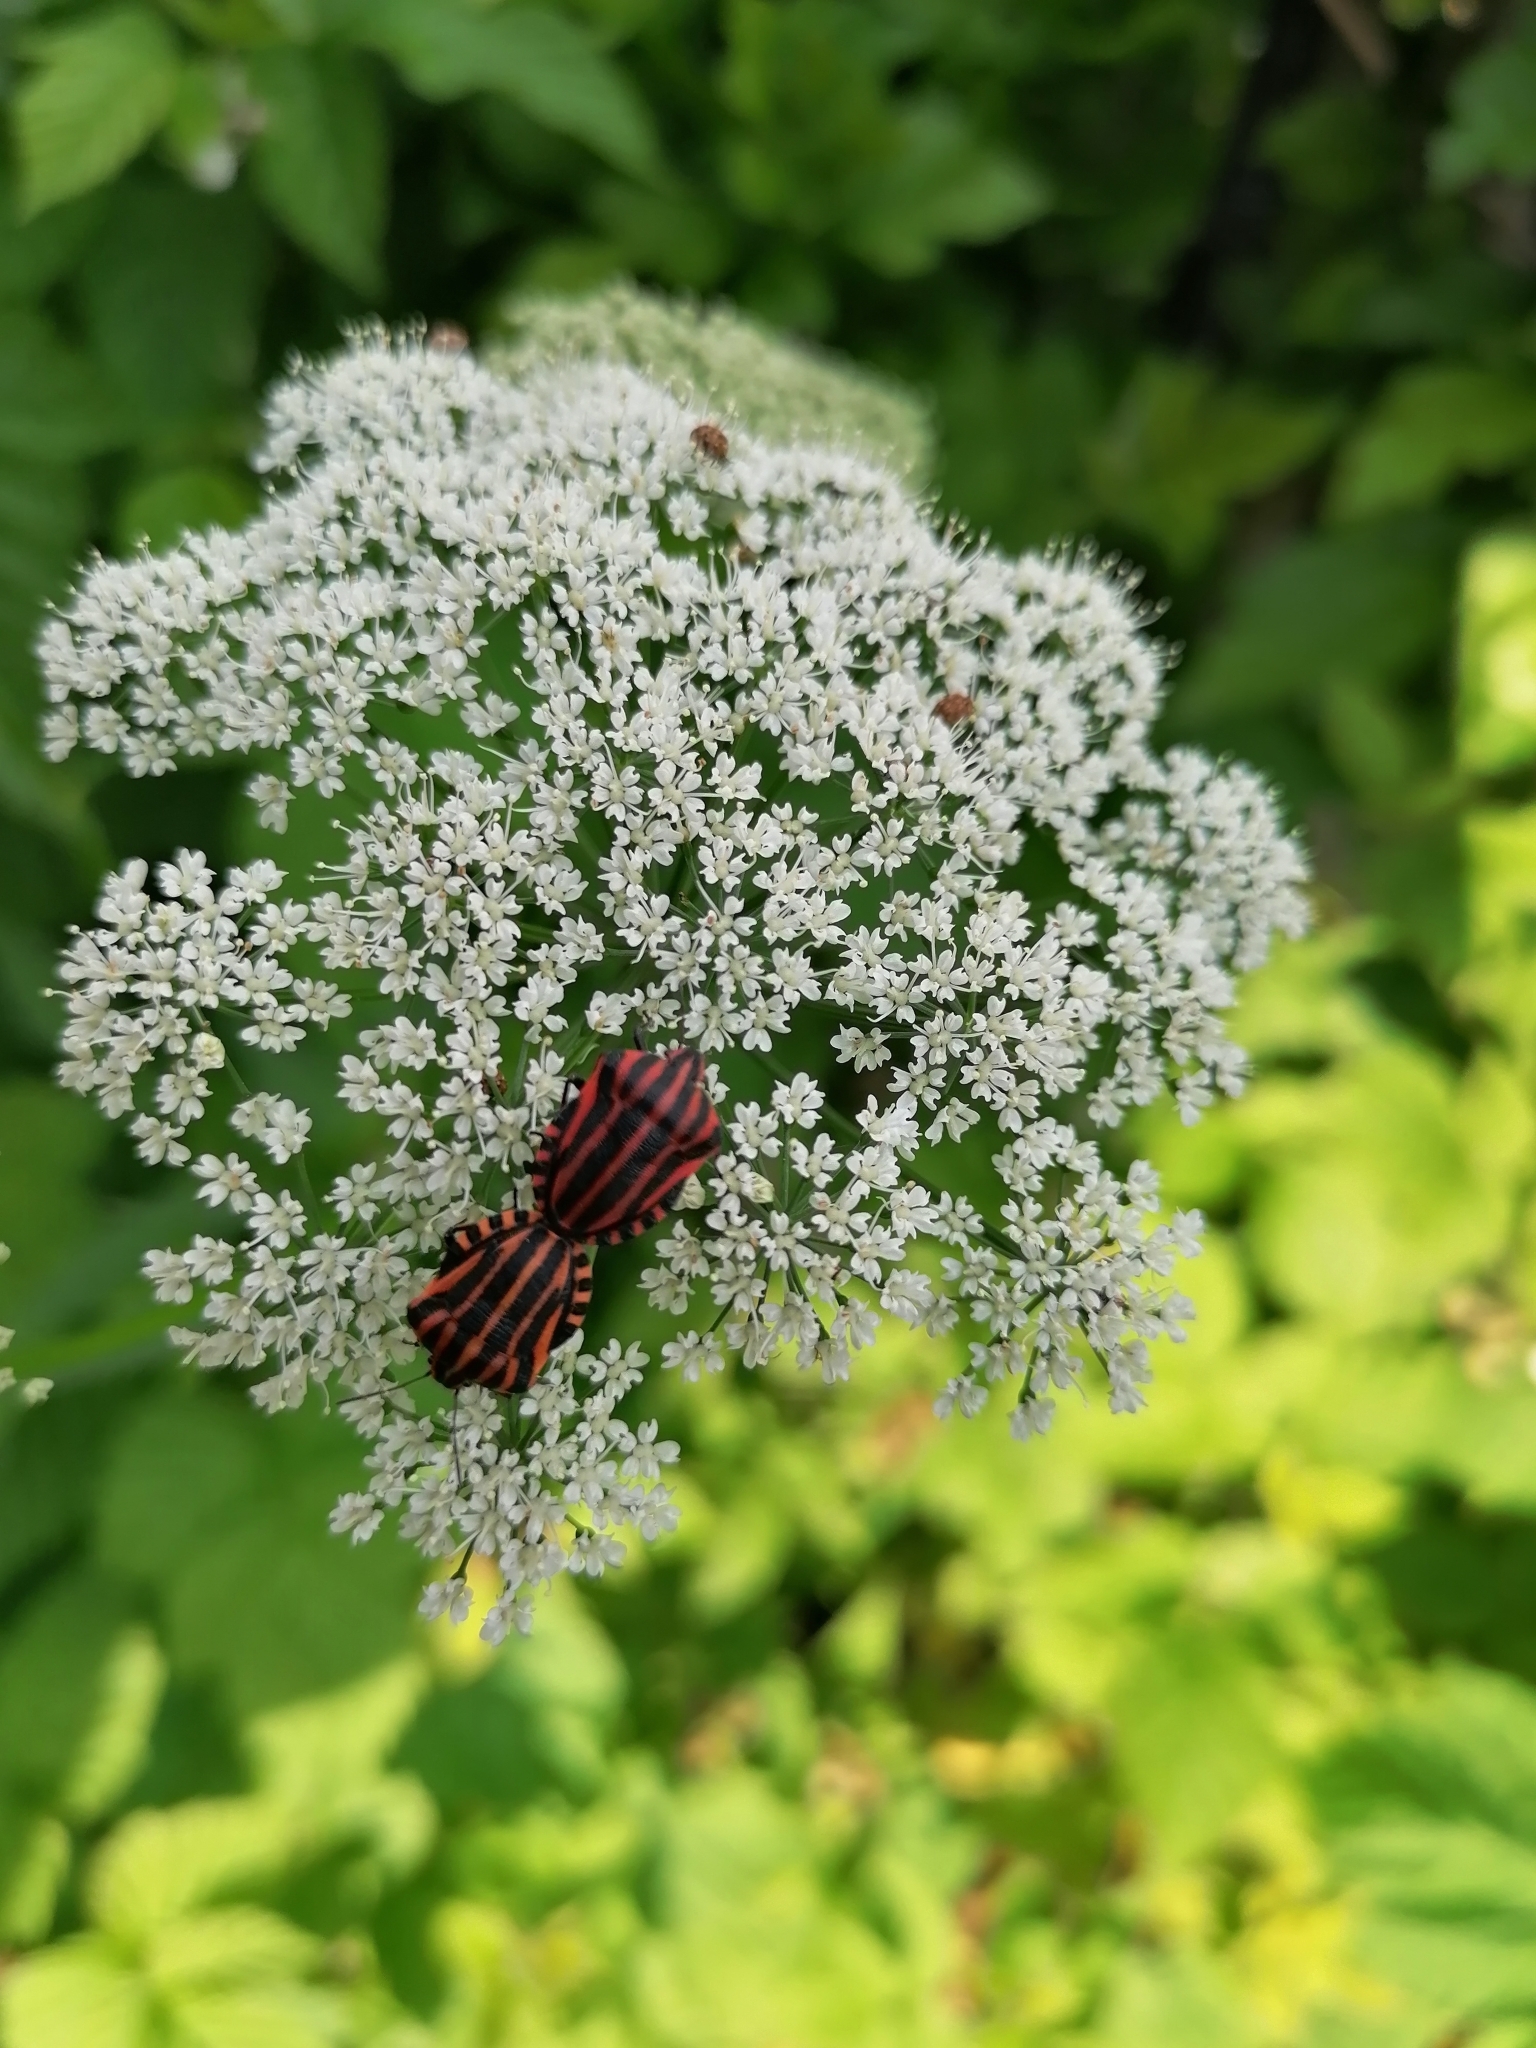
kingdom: Animalia
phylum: Arthropoda
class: Insecta
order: Hemiptera
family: Pentatomidae
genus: Graphosoma
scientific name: Graphosoma italicum
